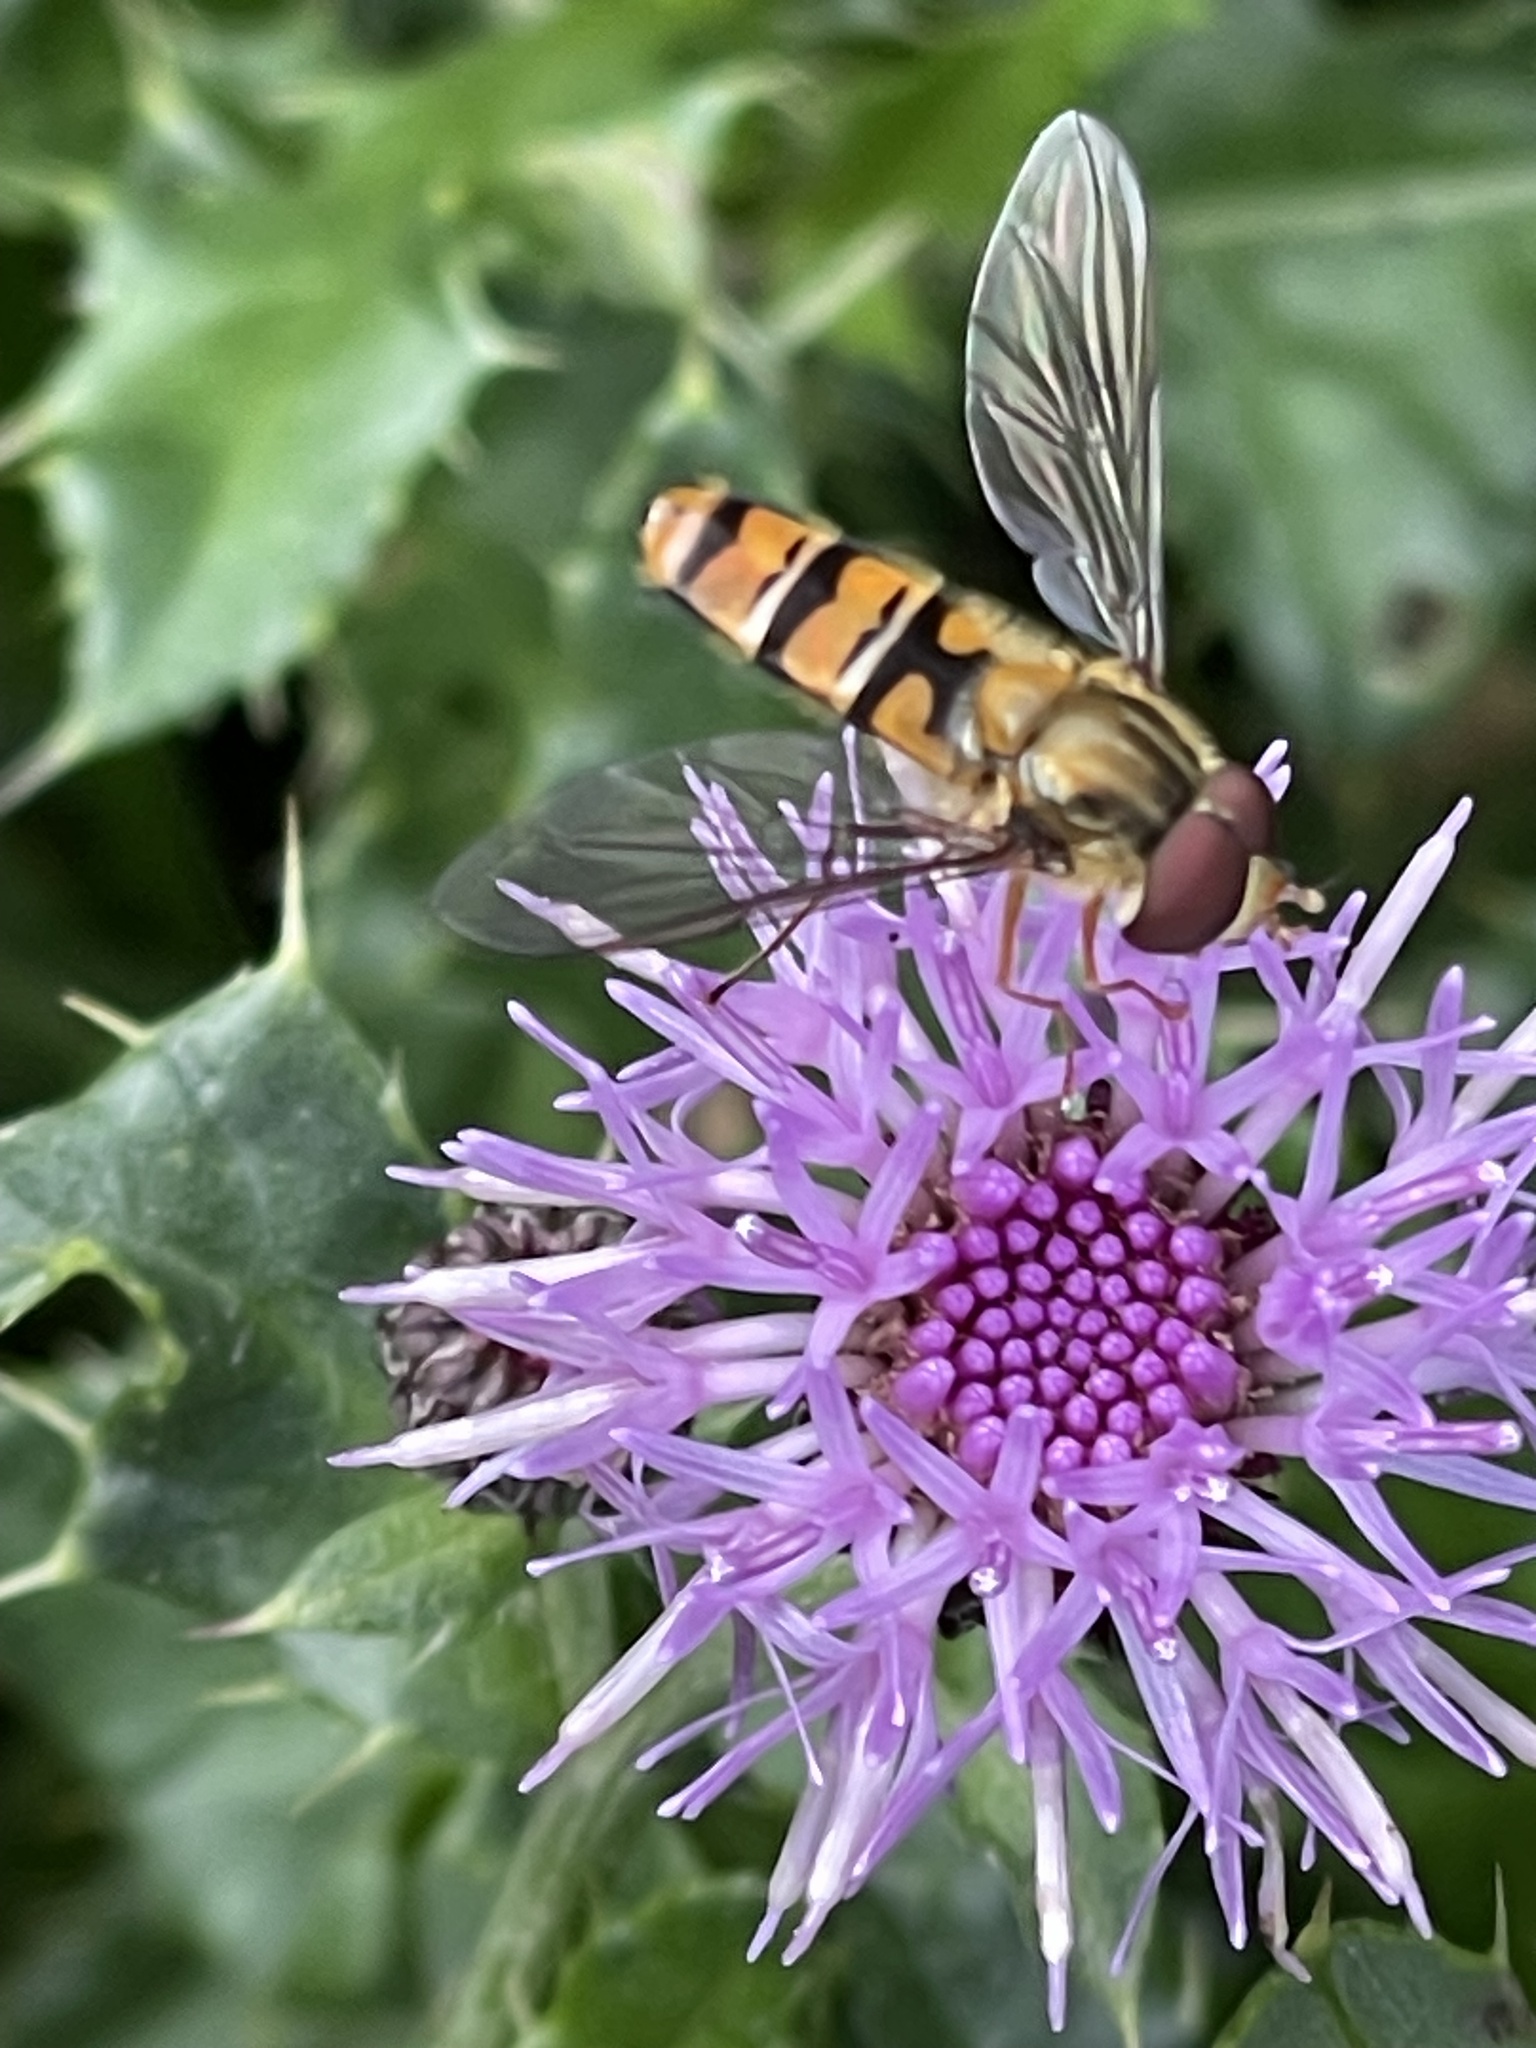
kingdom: Animalia
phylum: Arthropoda
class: Insecta
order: Diptera
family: Syrphidae
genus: Episyrphus
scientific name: Episyrphus balteatus
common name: Marmalade hoverfly
